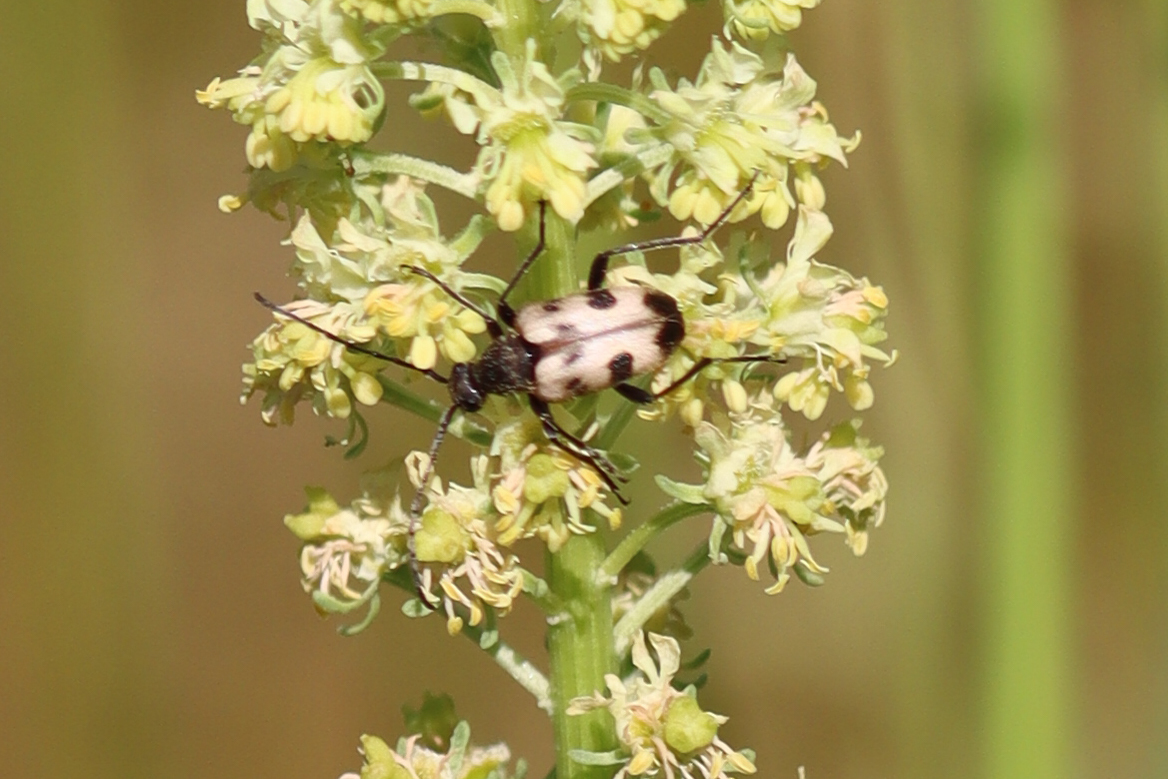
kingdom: Animalia
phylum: Arthropoda
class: Insecta
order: Coleoptera
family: Cerambycidae
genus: Pachytodes
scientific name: Pachytodes cerambyciformis
